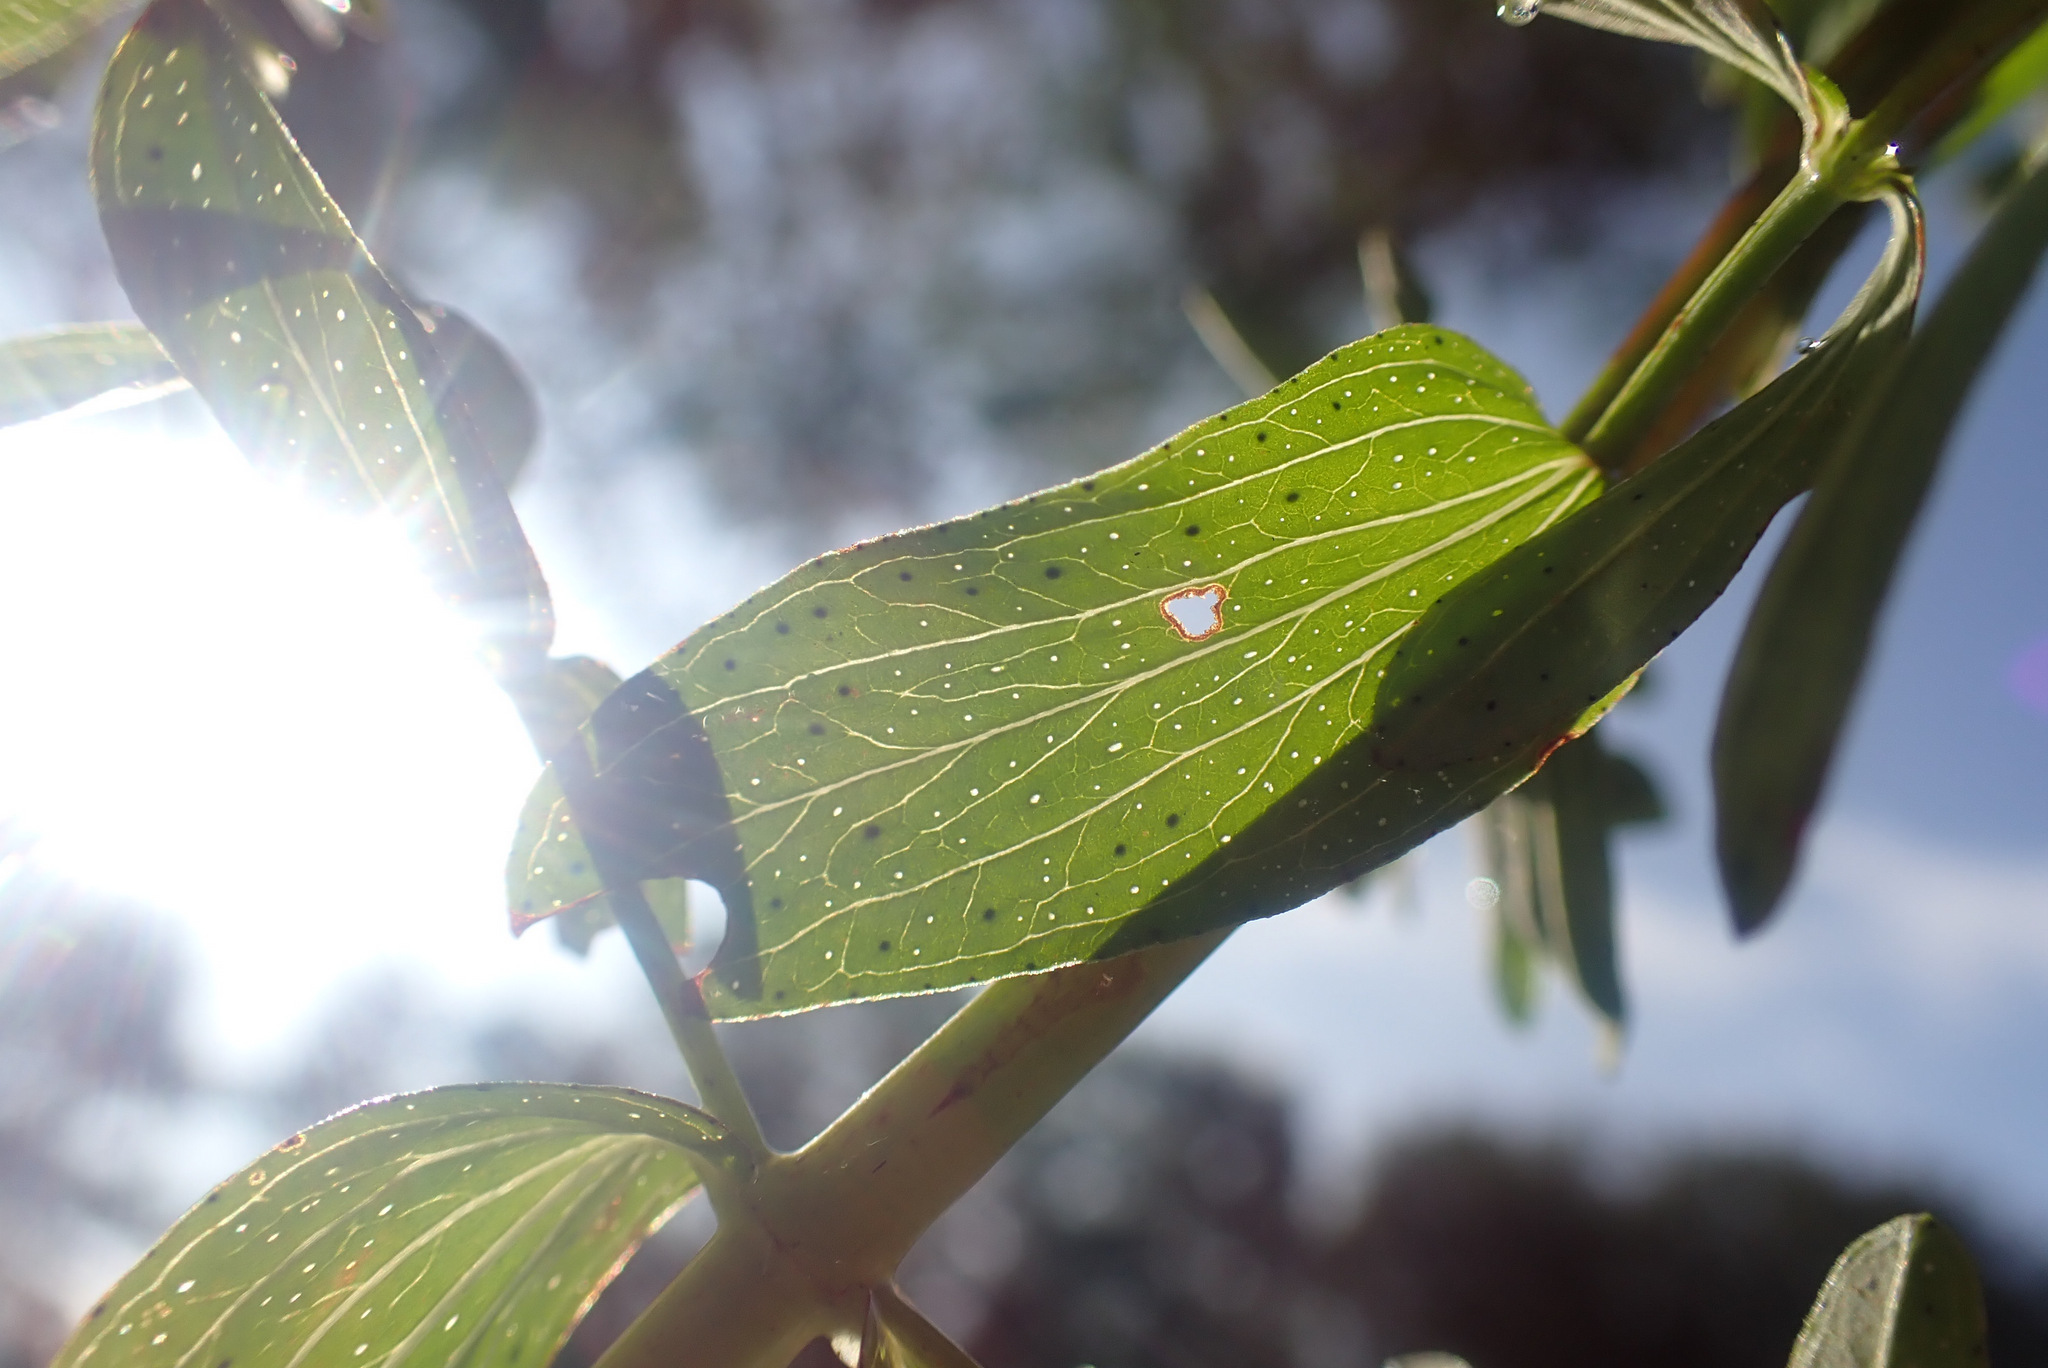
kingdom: Plantae
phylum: Tracheophyta
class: Magnoliopsida
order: Malpighiales
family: Hypericaceae
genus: Hypericum
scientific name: Hypericum desetangsii
